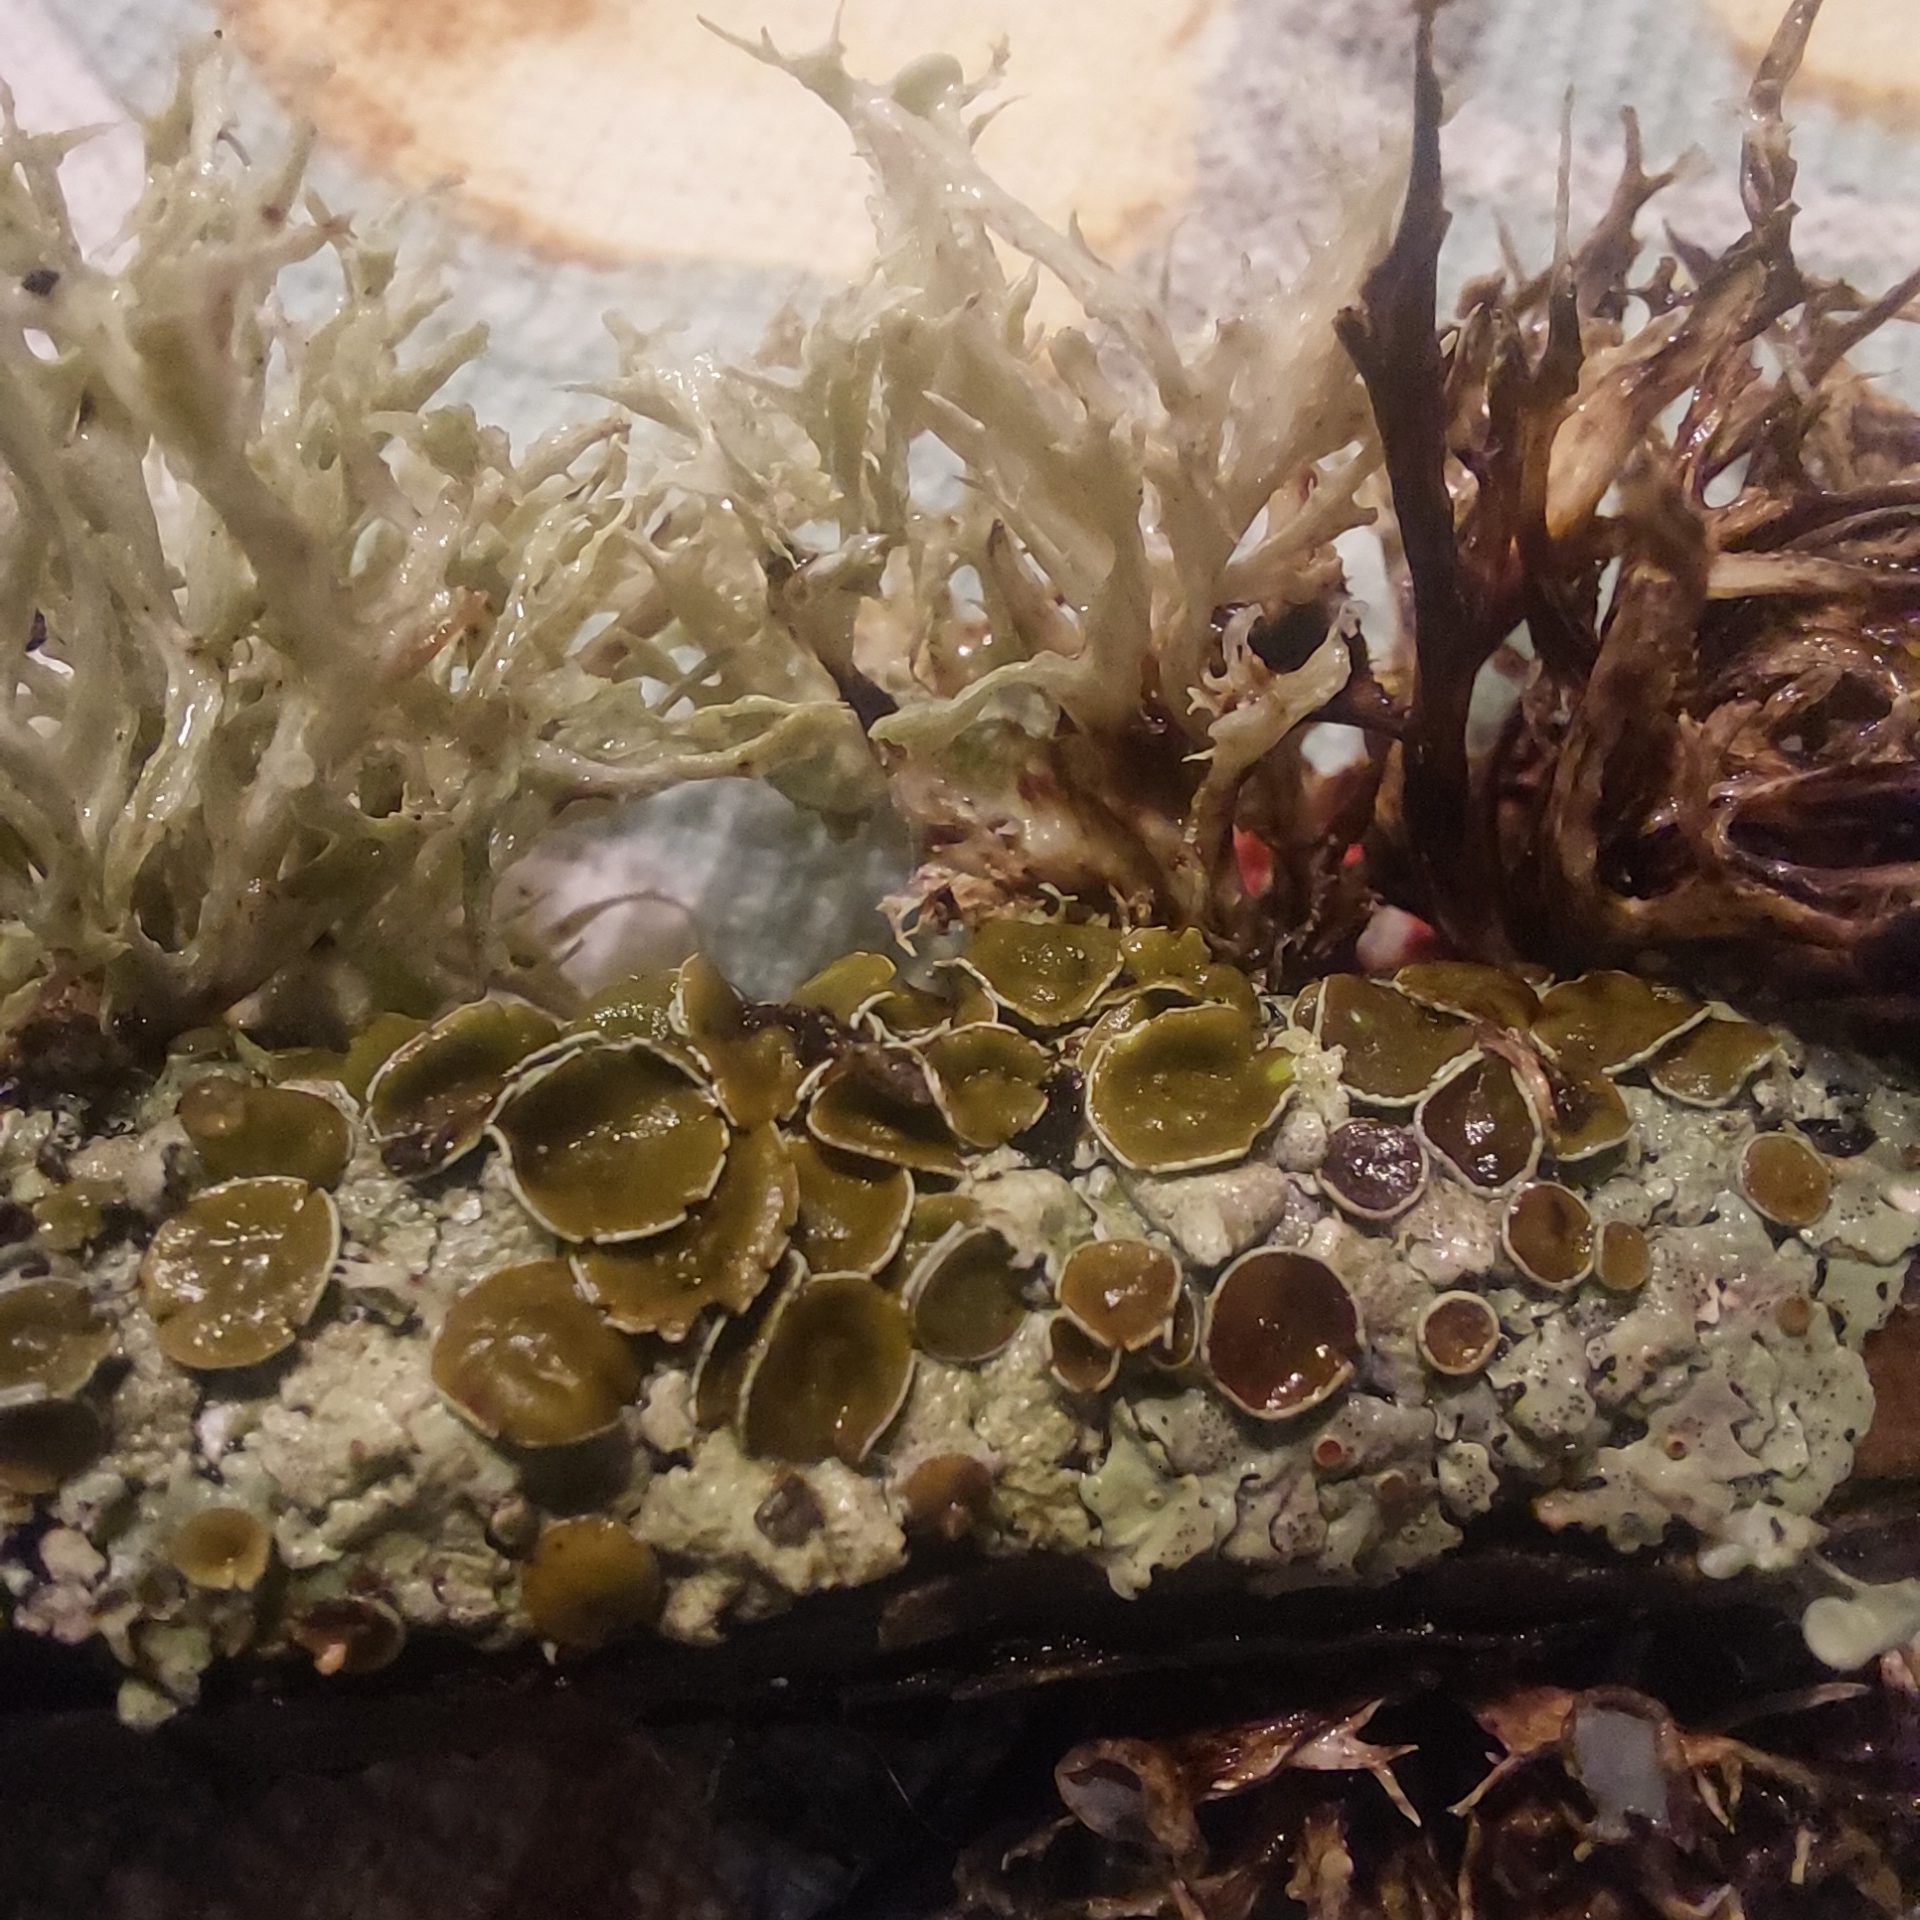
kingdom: Fungi
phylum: Ascomycota
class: Lecanoromycetes
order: Lecanorales
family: Parmeliaceae
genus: Myelochroa
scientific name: Myelochroa galbina
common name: Smooth axil-bristle lichen
